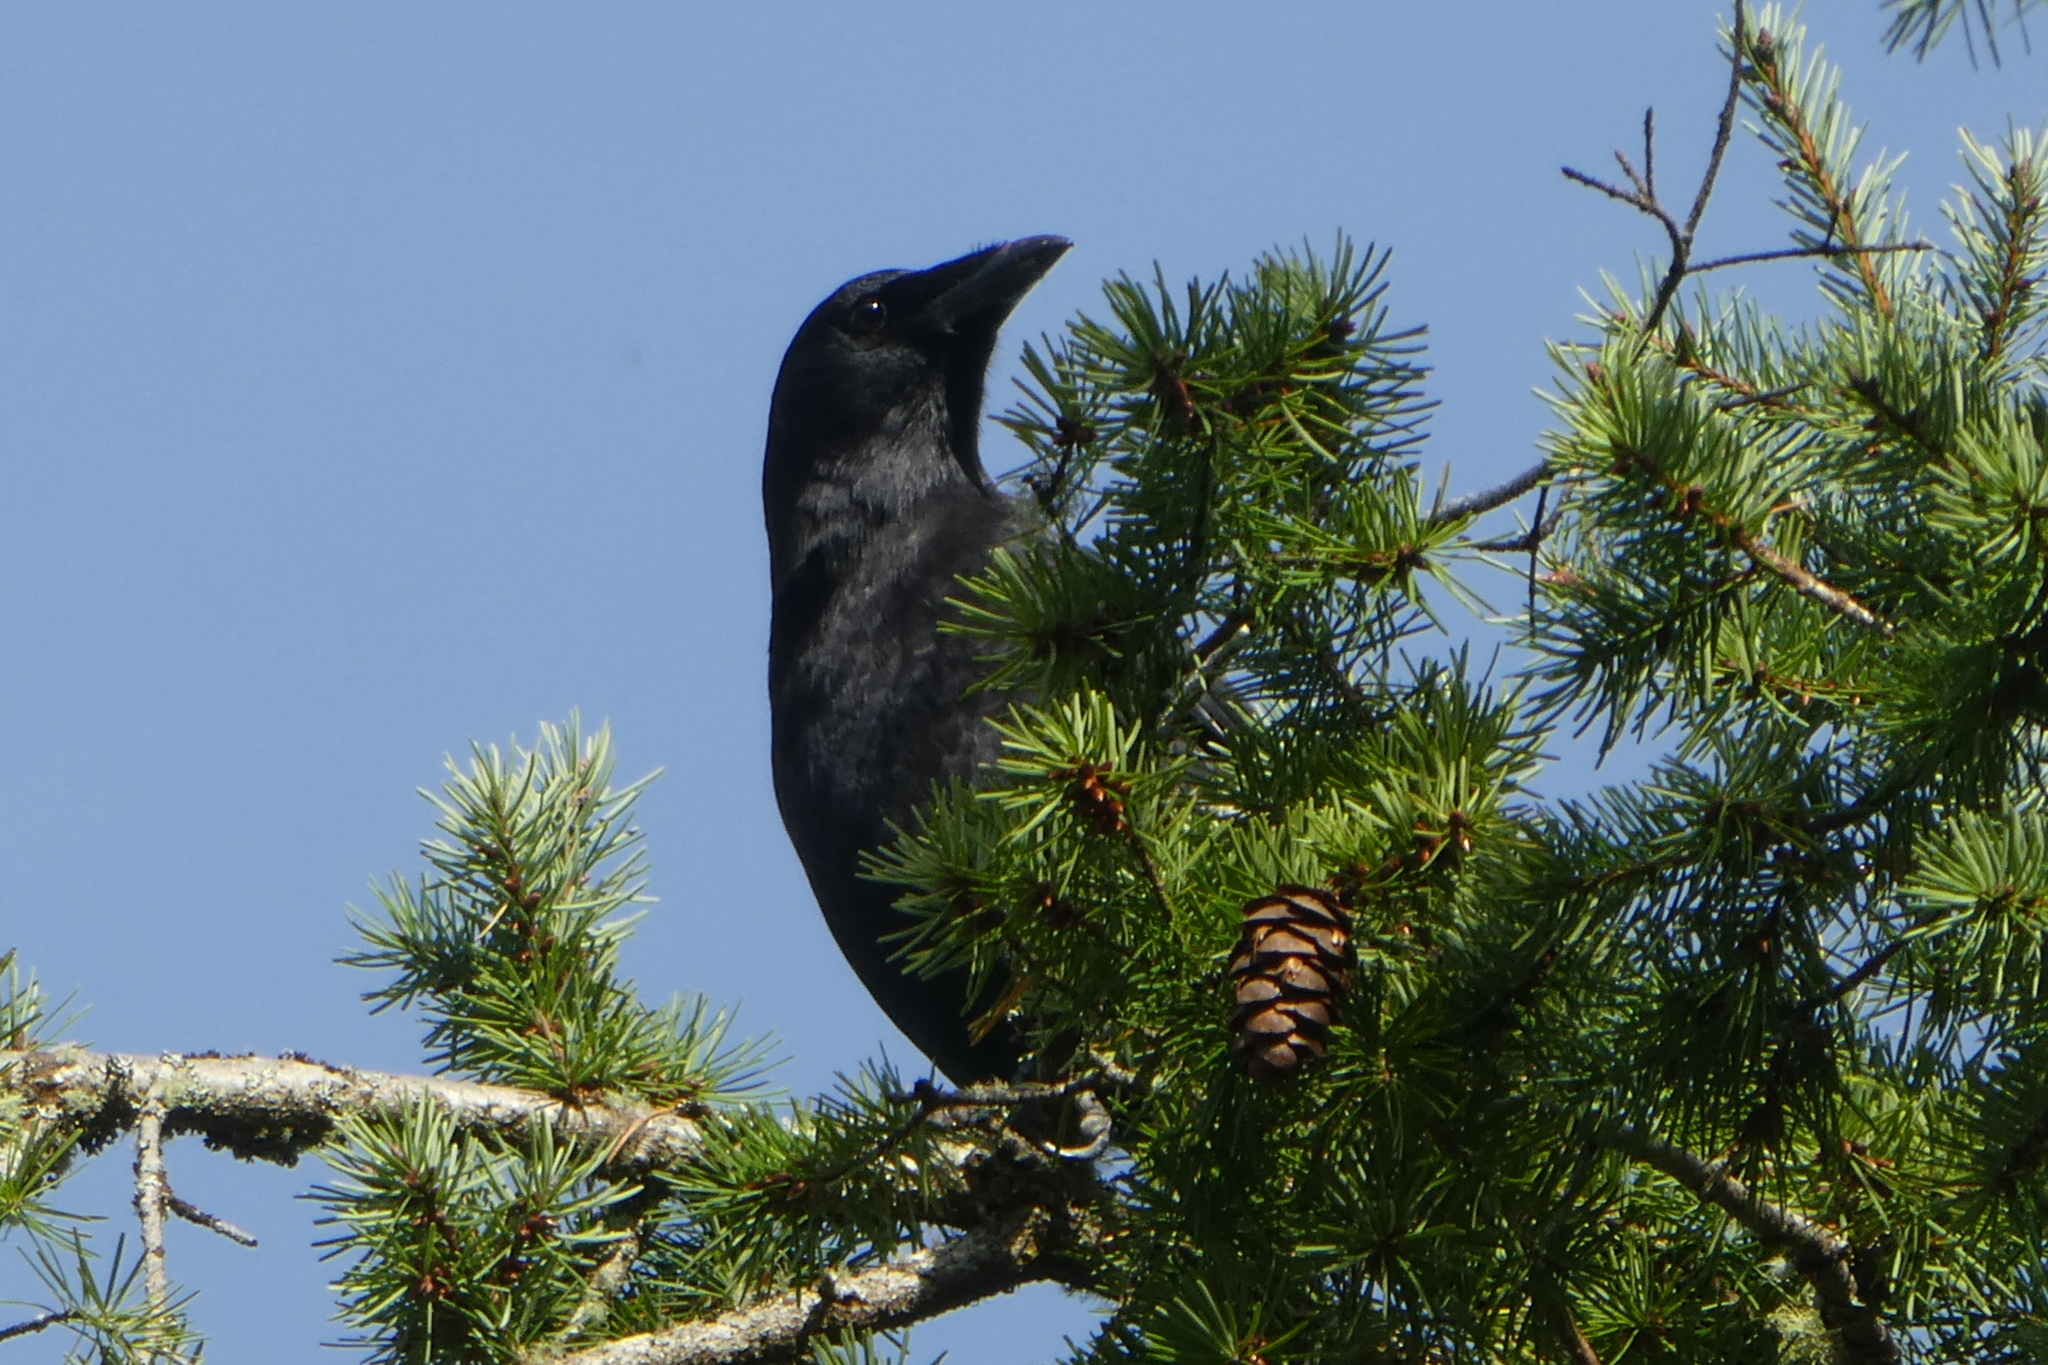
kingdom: Animalia
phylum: Chordata
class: Aves
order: Passeriformes
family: Corvidae
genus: Corvus
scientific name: Corvus brachyrhynchos
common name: American crow
